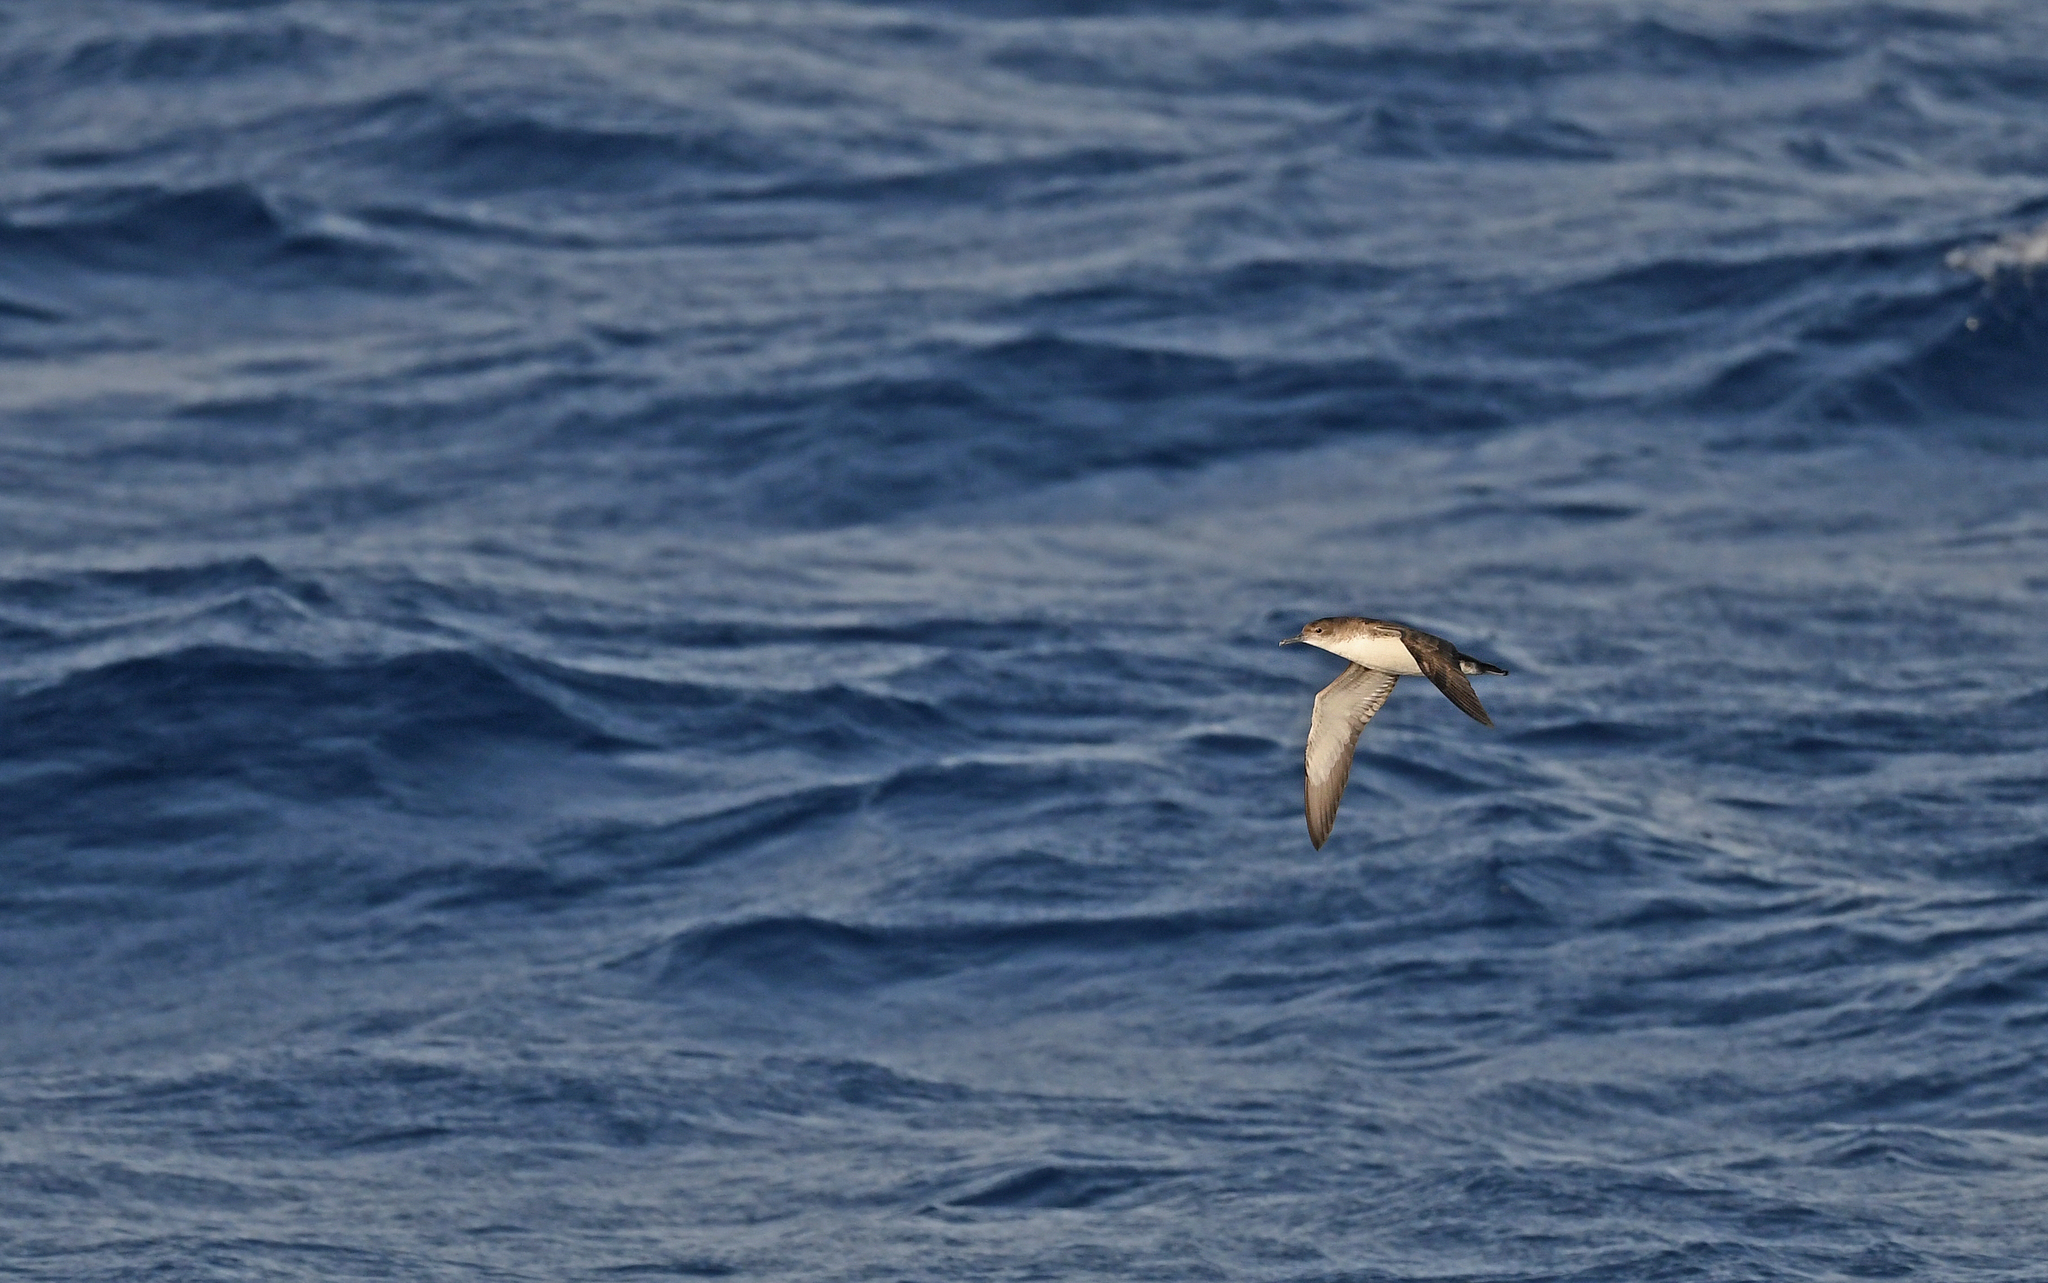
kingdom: Animalia
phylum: Chordata
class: Aves
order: Procellariiformes
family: Procellariidae
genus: Puffinus
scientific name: Puffinus yelkouan
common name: Yelkouan shearwater
